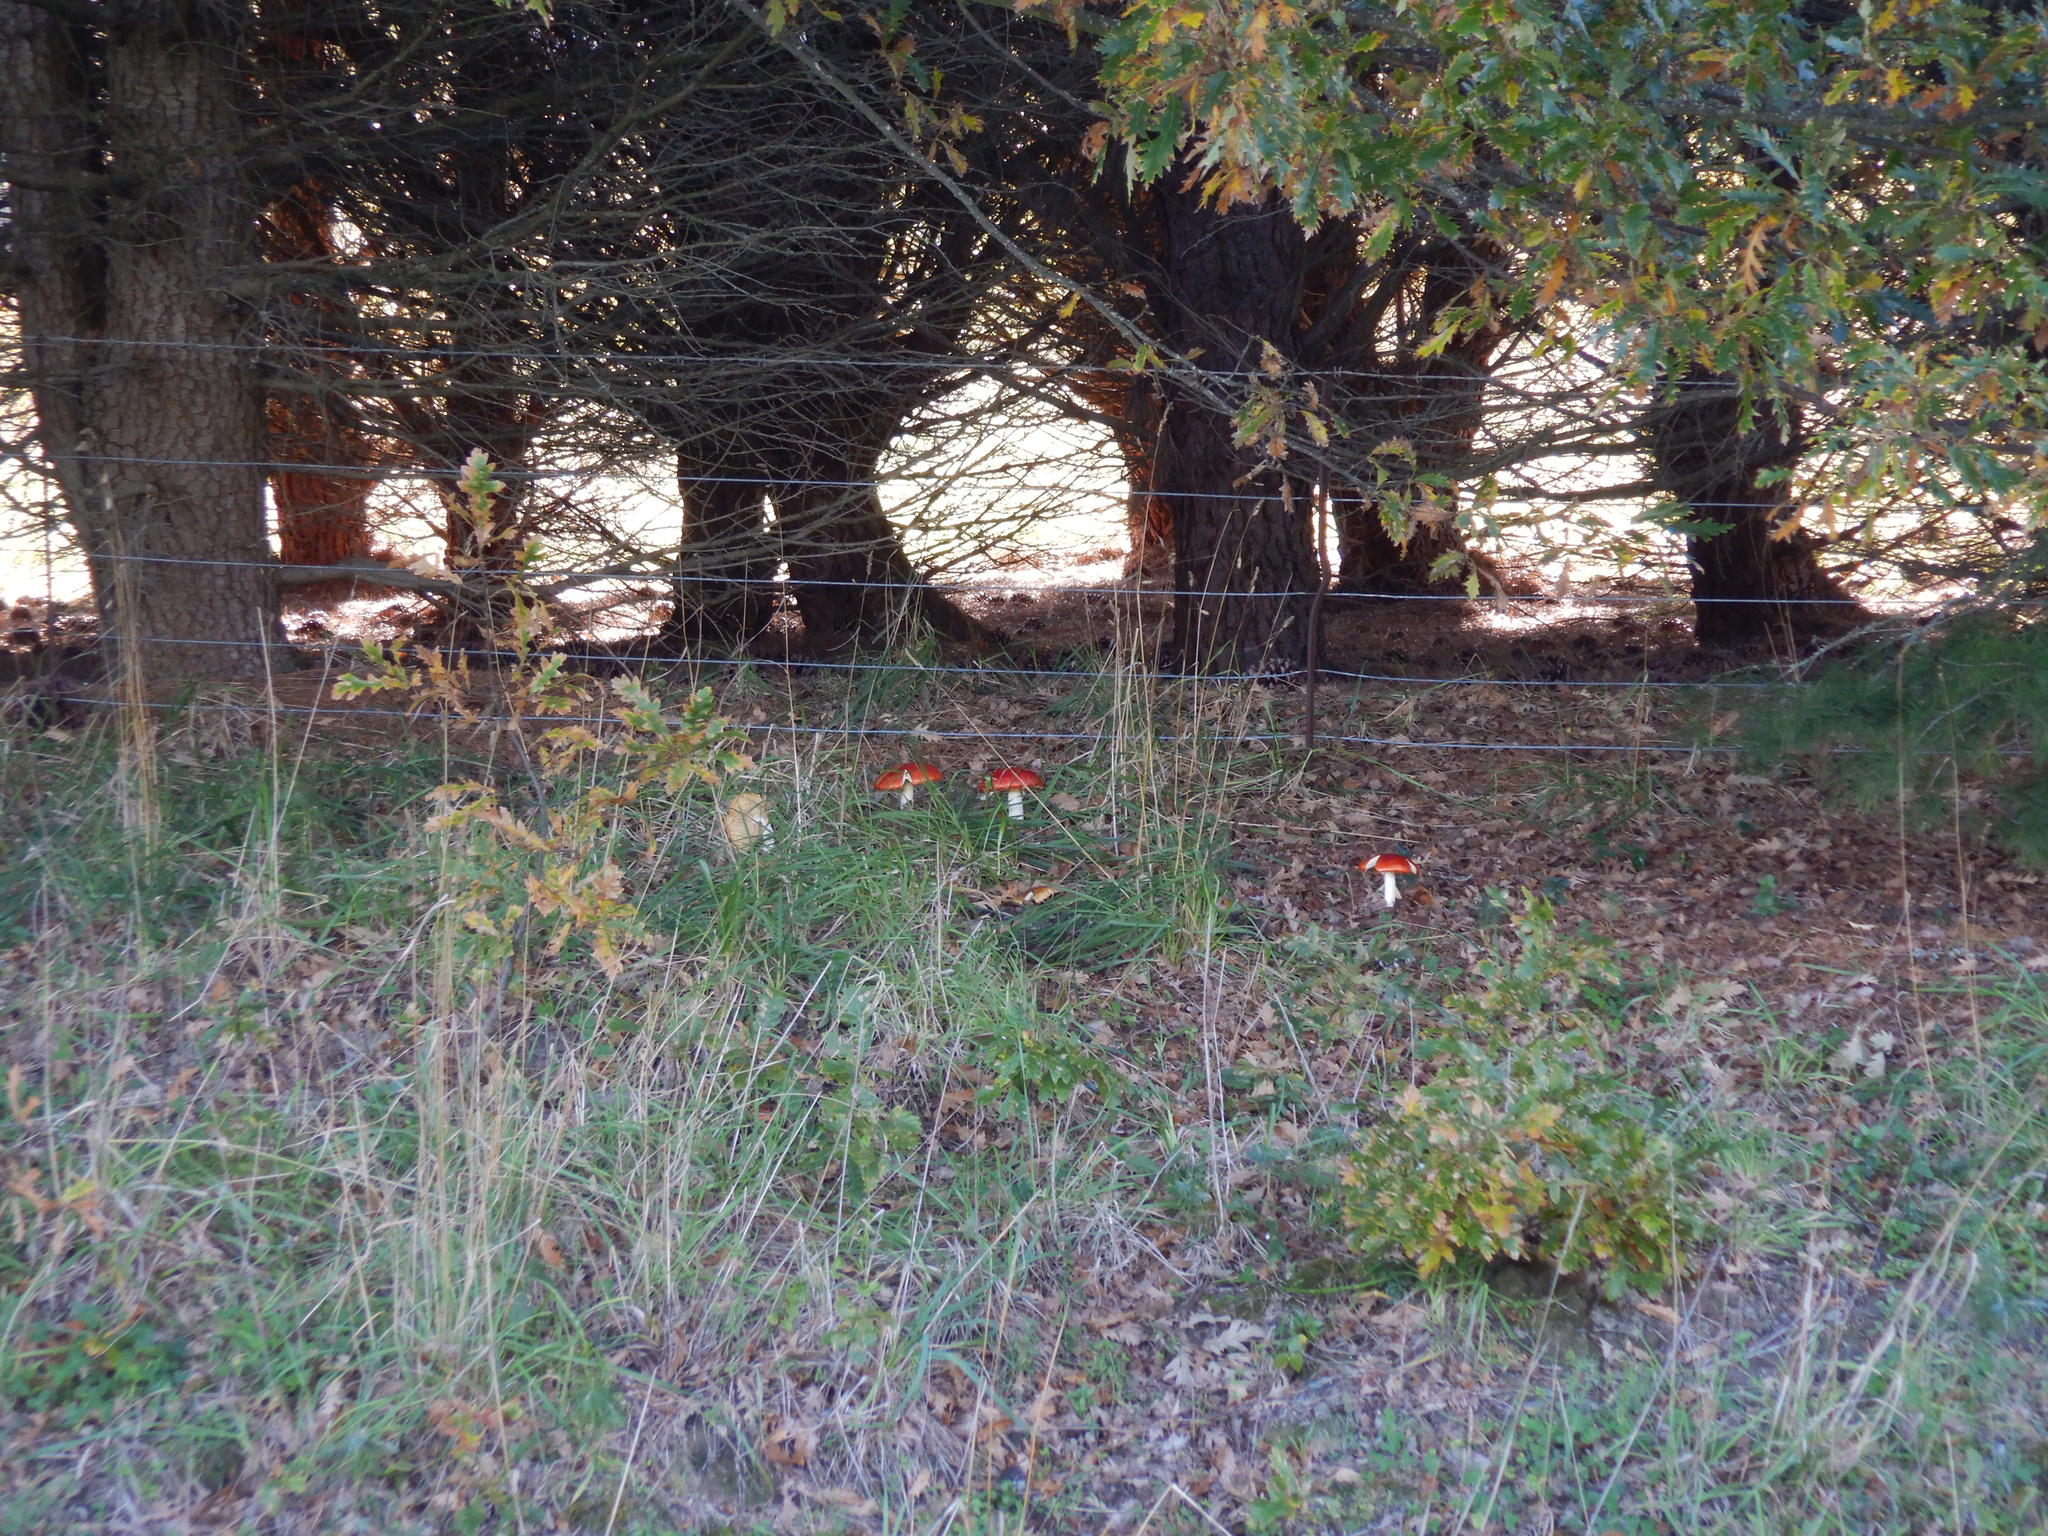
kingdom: Fungi
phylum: Basidiomycota
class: Agaricomycetes
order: Agaricales
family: Amanitaceae
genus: Amanita
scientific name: Amanita muscaria
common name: Fly agaric
